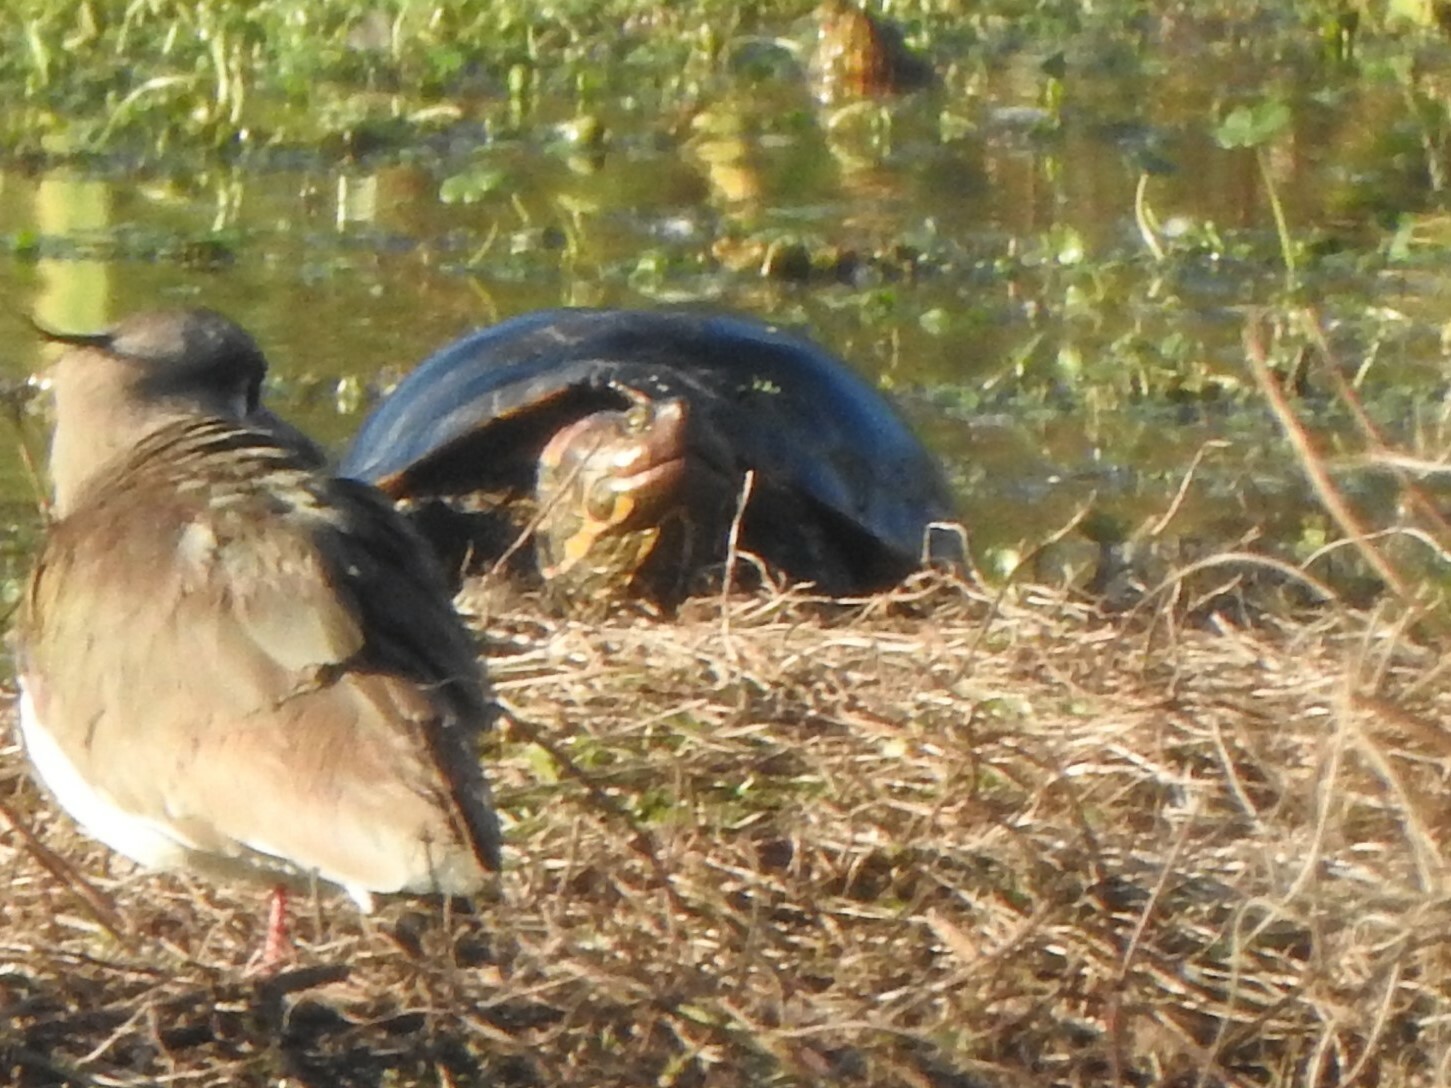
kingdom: Animalia
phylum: Chordata
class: Testudines
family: Emydidae
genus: Trachemys
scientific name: Trachemys dorbigni
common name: Black-bellied slider
